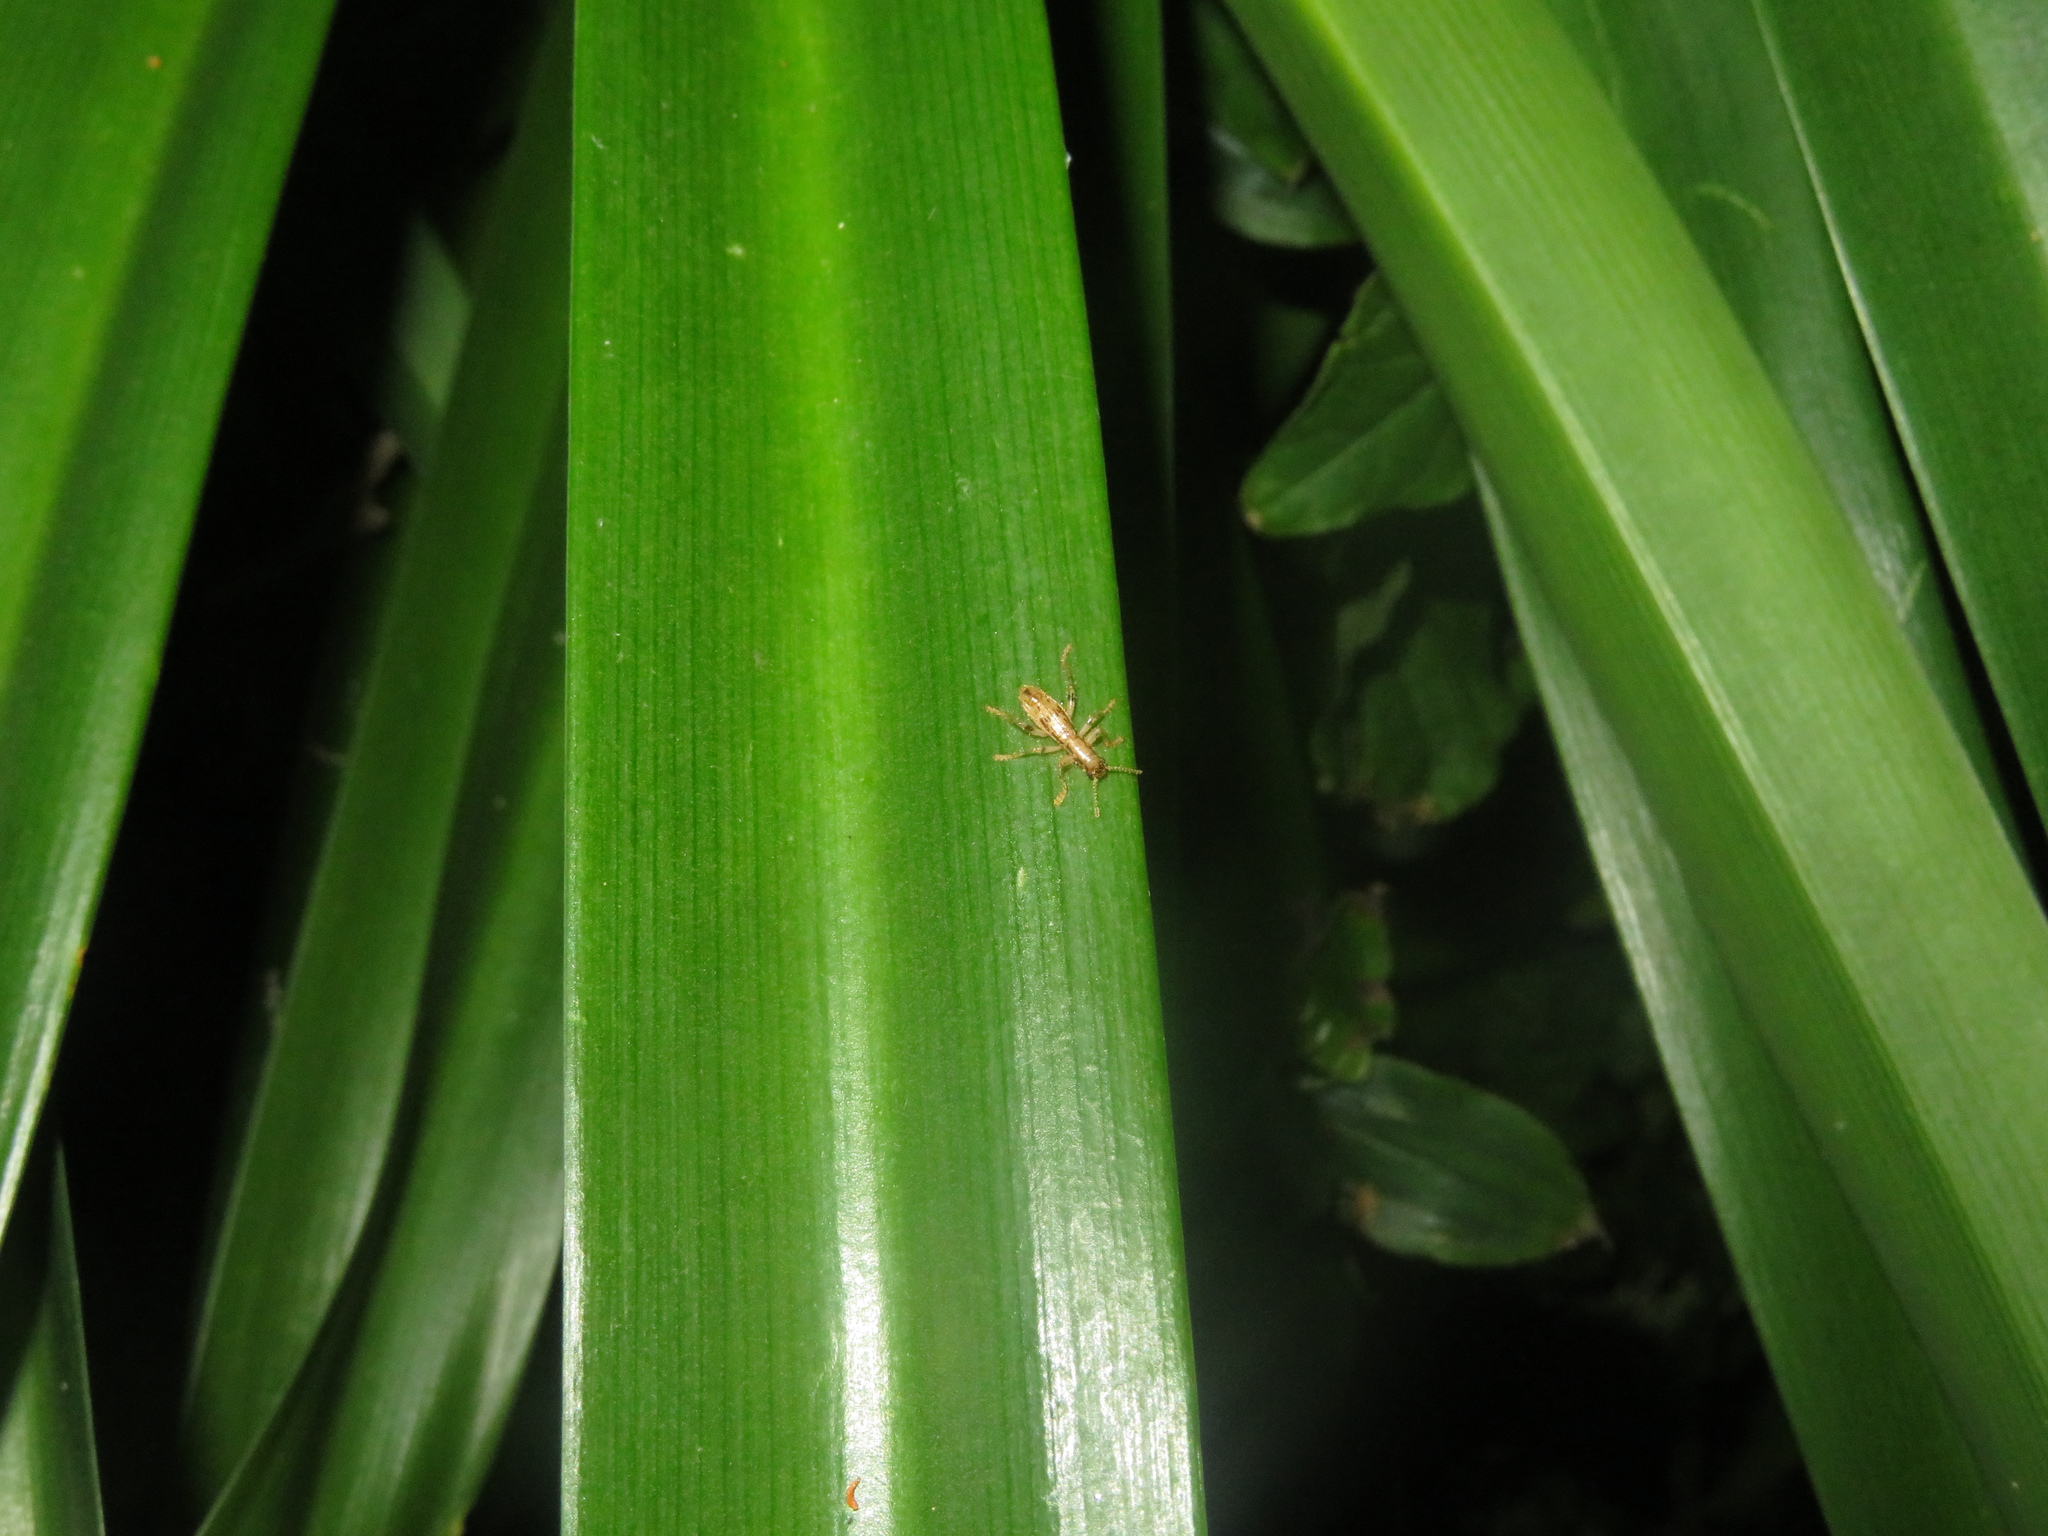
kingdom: Animalia
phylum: Arthropoda
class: Insecta
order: Coleoptera
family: Cleridae
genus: Lemidia
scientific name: Lemidia
